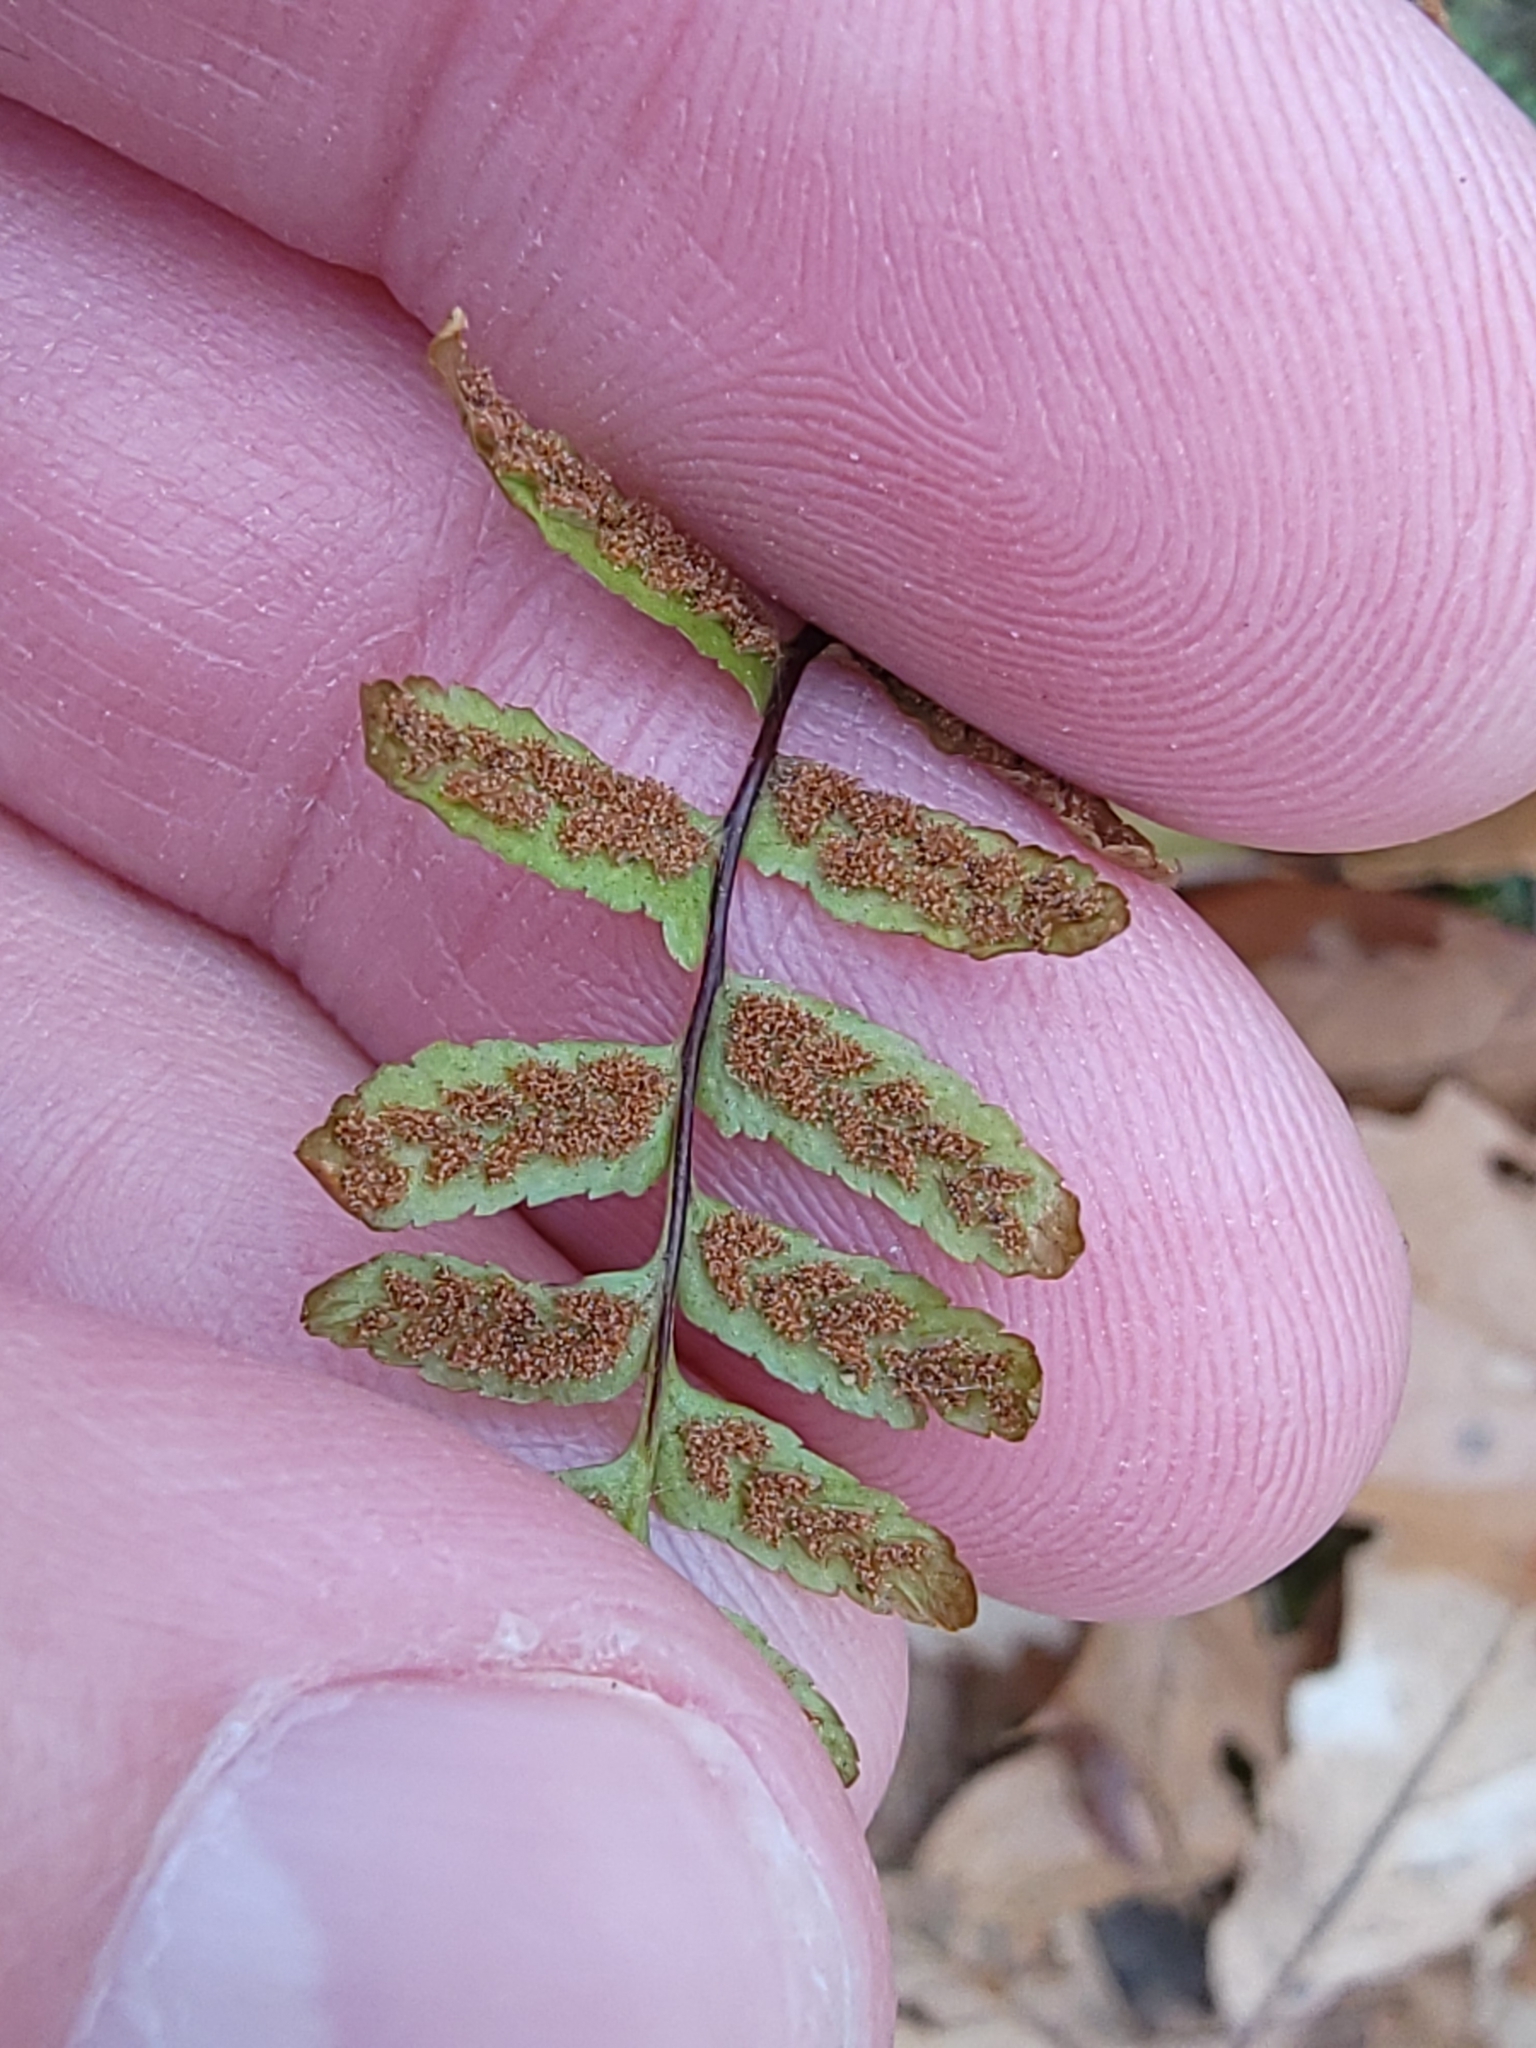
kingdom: Plantae
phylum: Tracheophyta
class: Polypodiopsida
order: Polypodiales
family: Aspleniaceae
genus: Asplenium
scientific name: Asplenium platyneuron
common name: Ebony spleenwort
